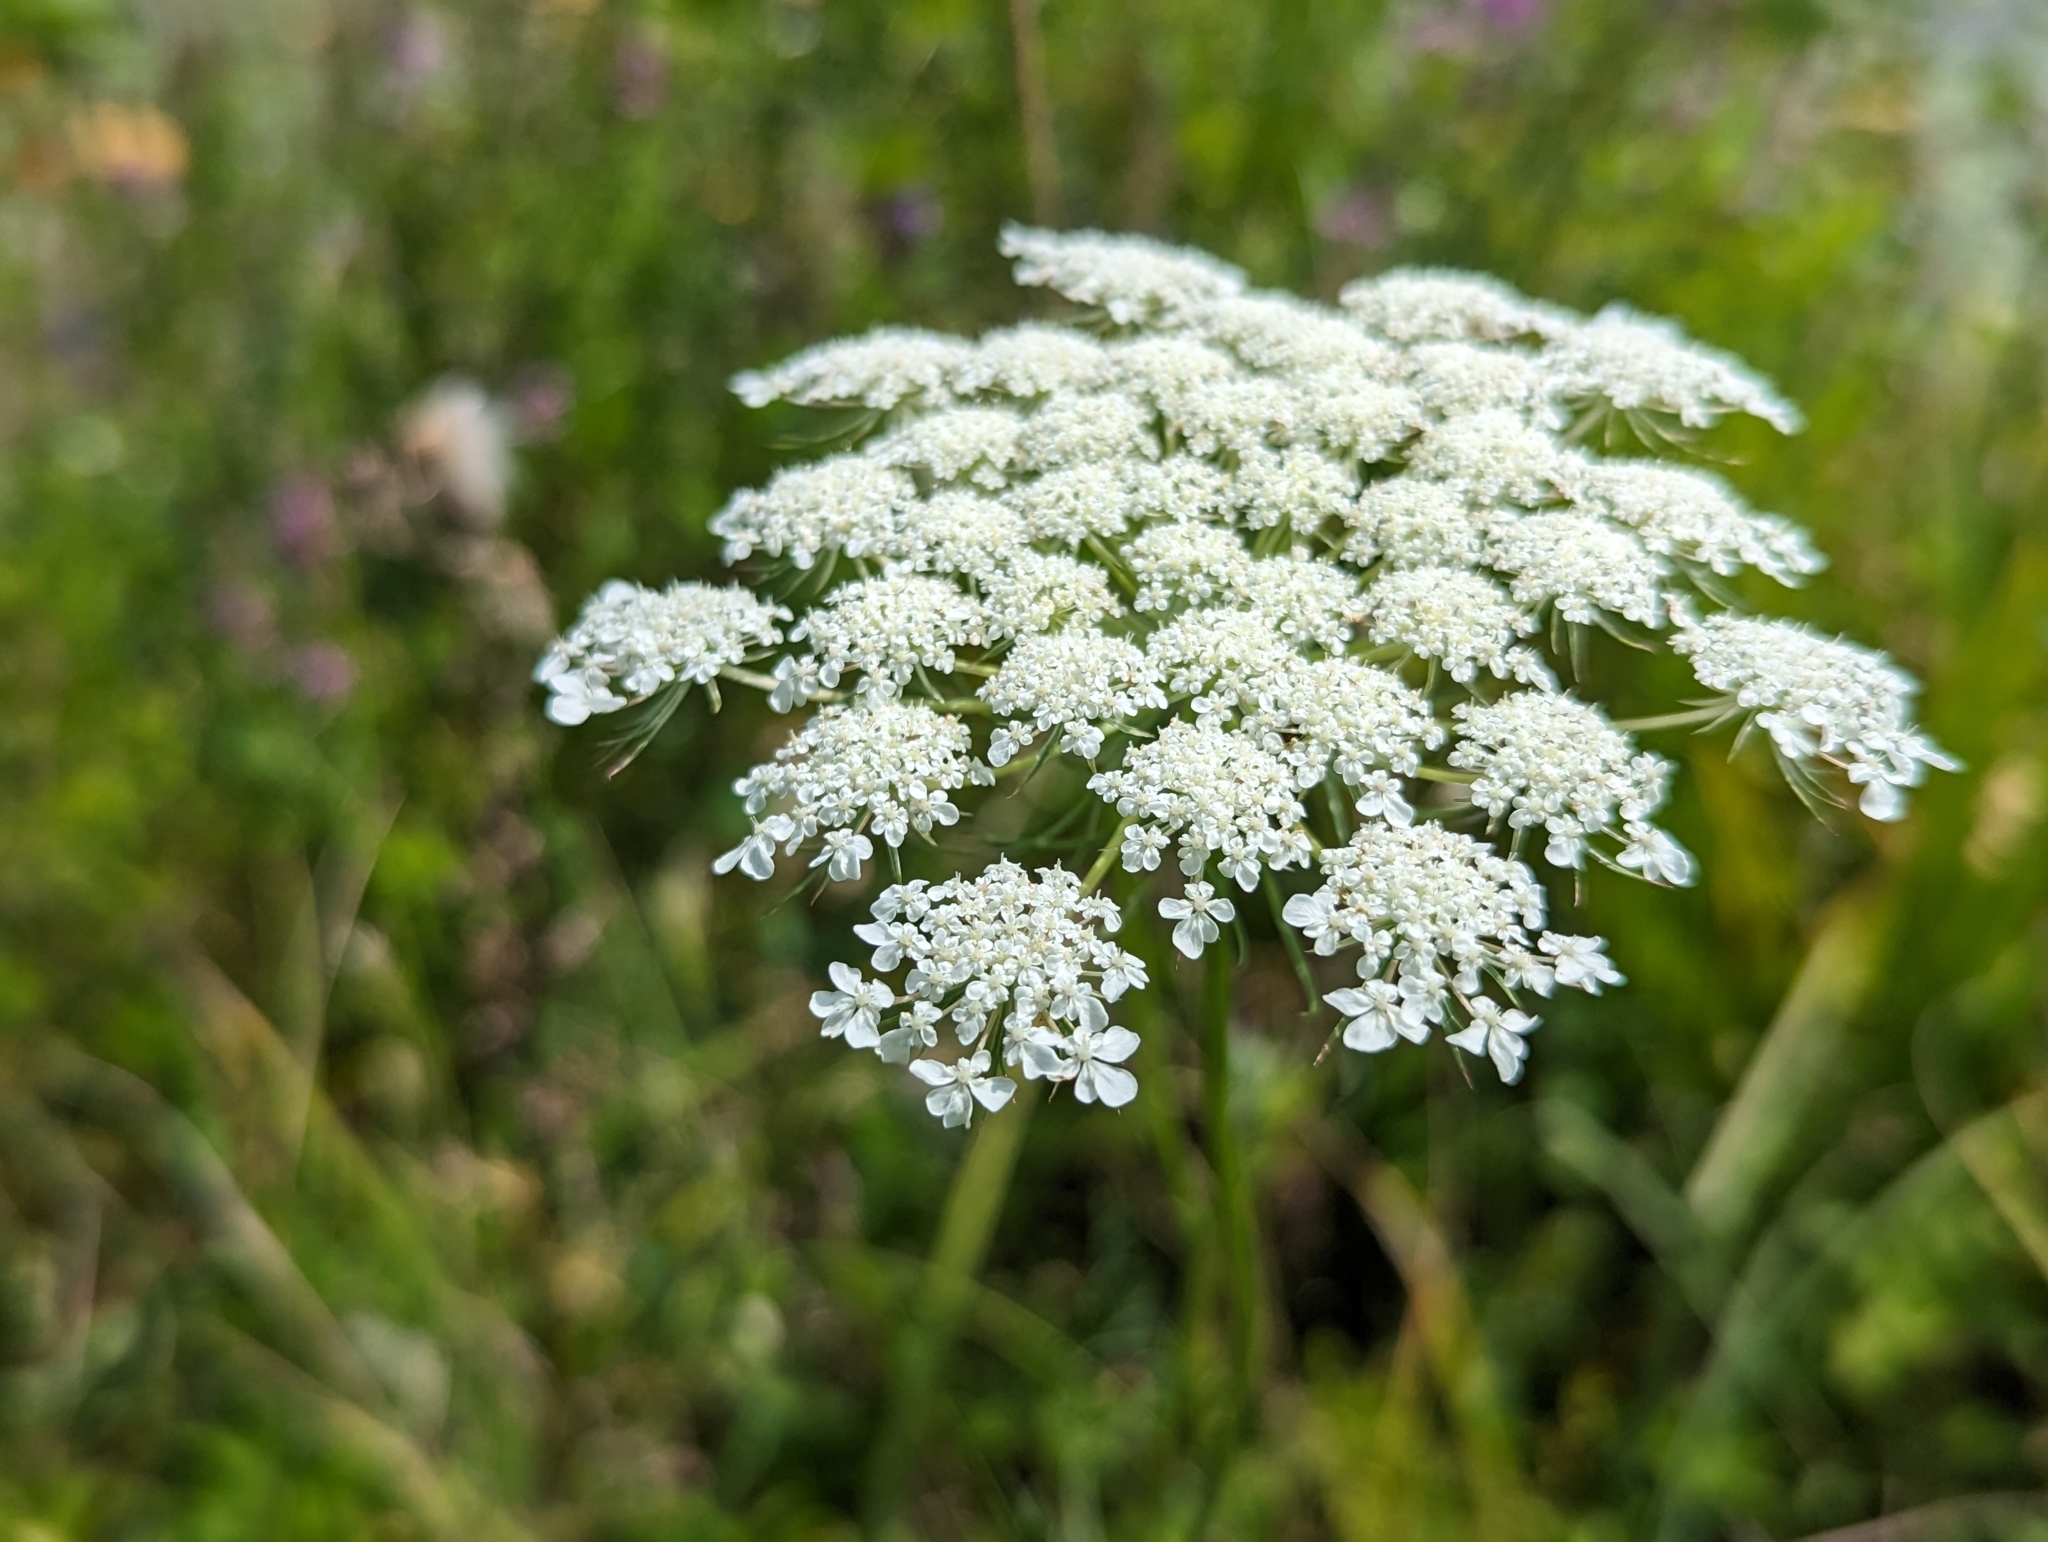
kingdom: Plantae
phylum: Tracheophyta
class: Magnoliopsida
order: Apiales
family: Apiaceae
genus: Daucus
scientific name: Daucus carota
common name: Wild carrot
